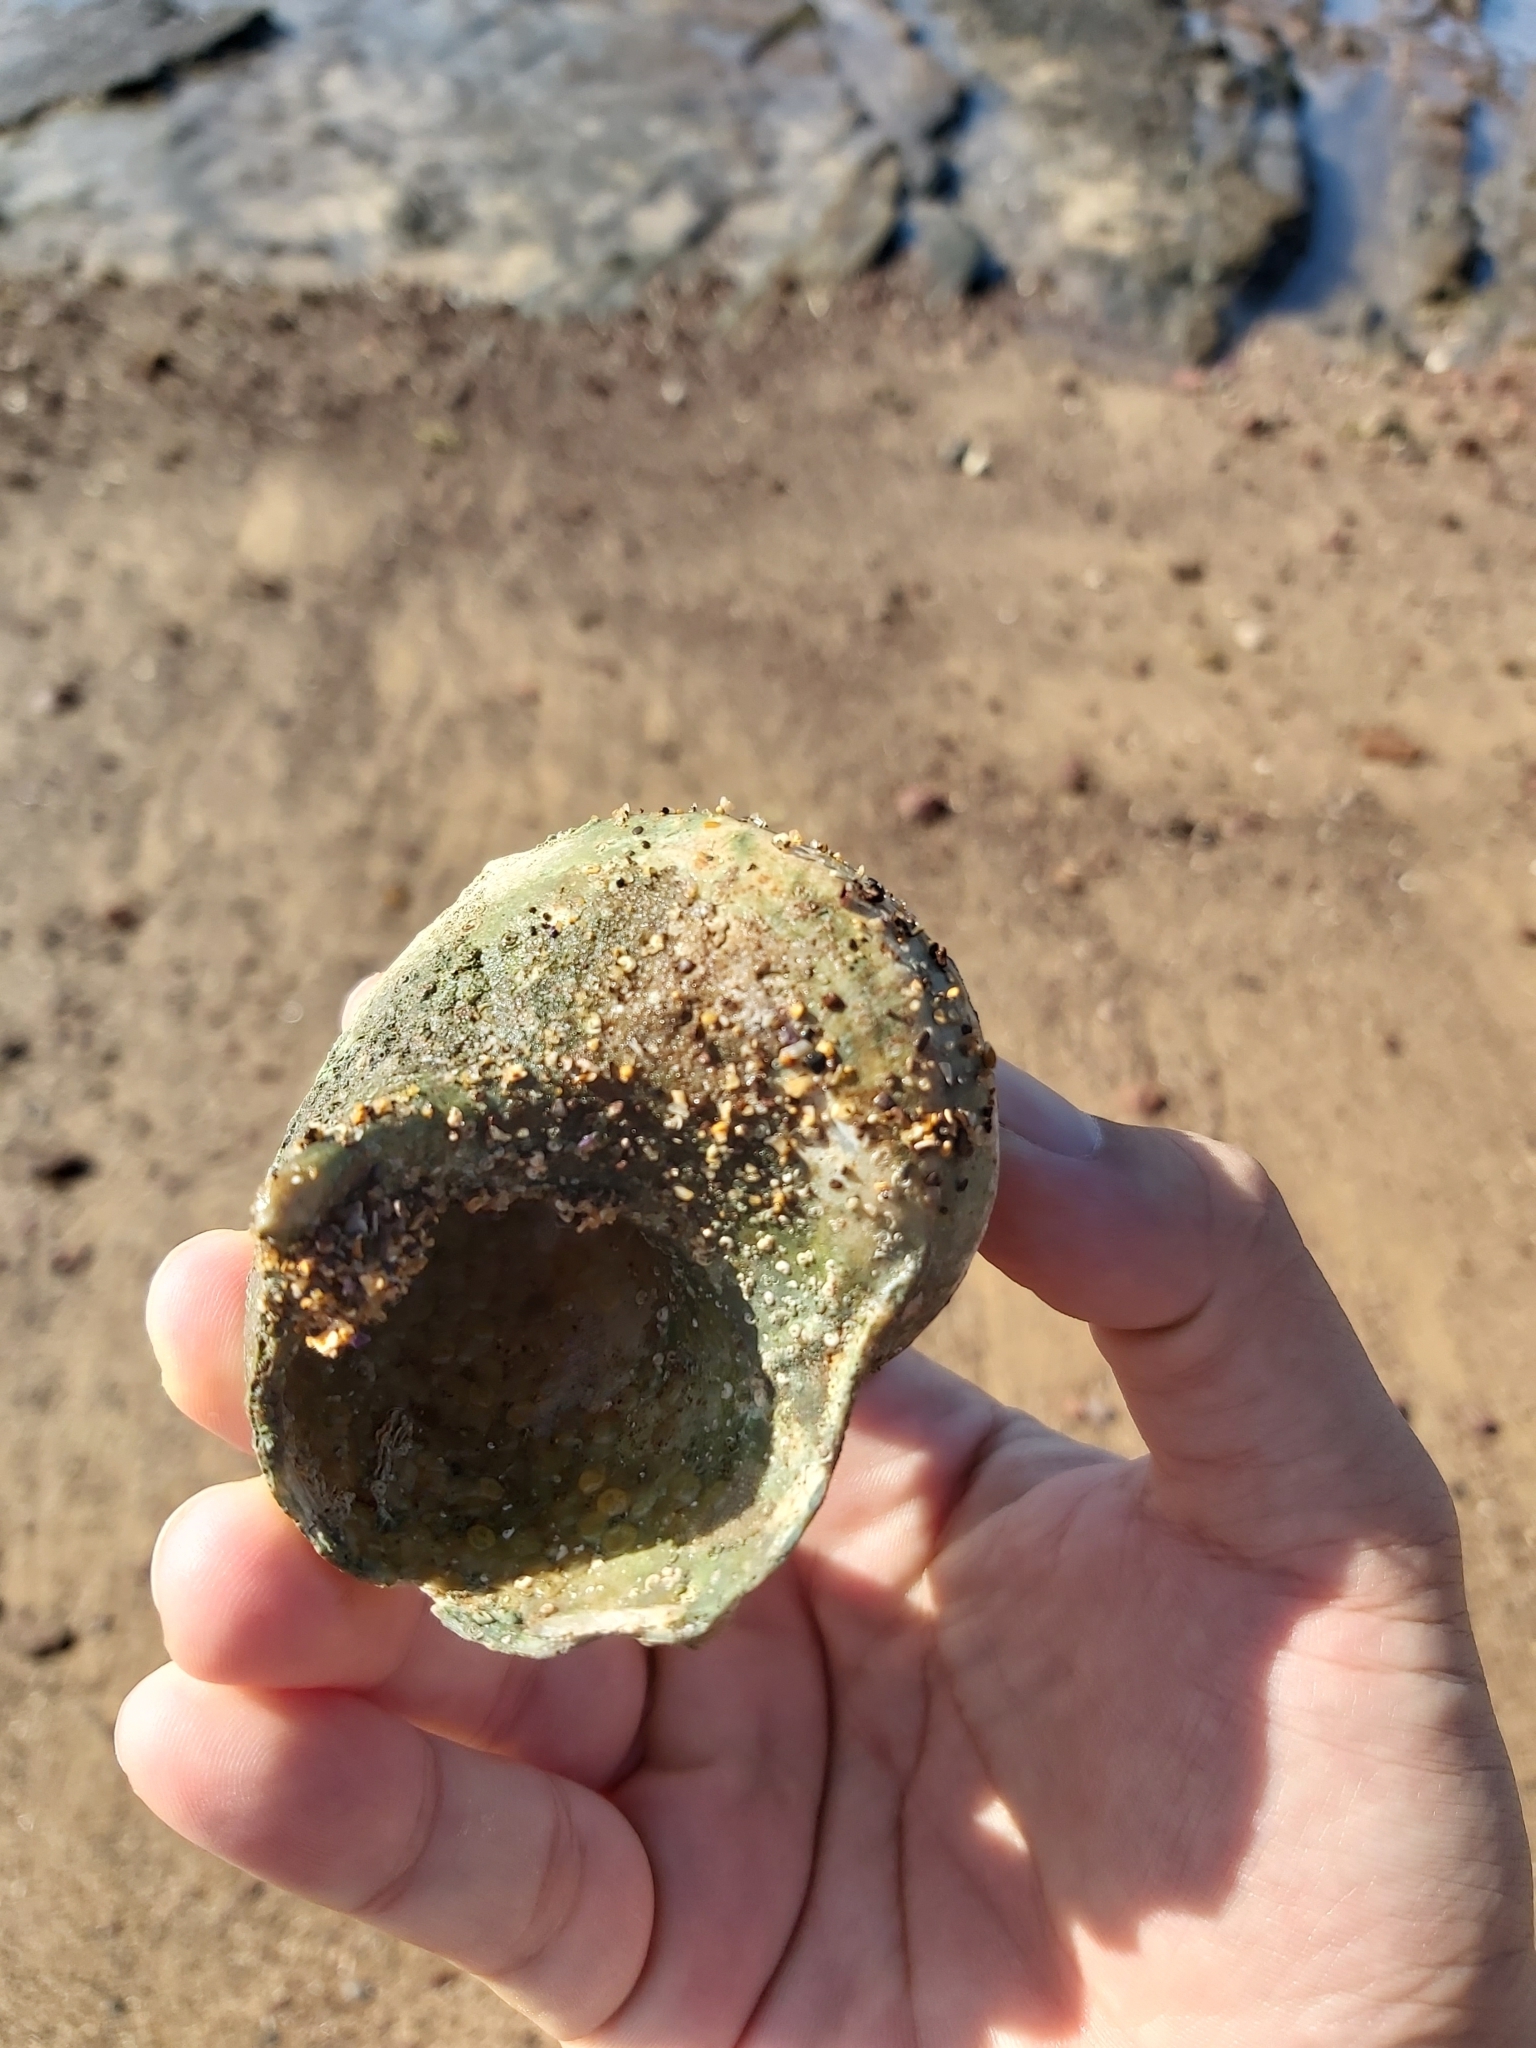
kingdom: Animalia
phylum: Mollusca
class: Gastropoda
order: Trochida
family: Turbinidae
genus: Turbo
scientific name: Turbo militaris
